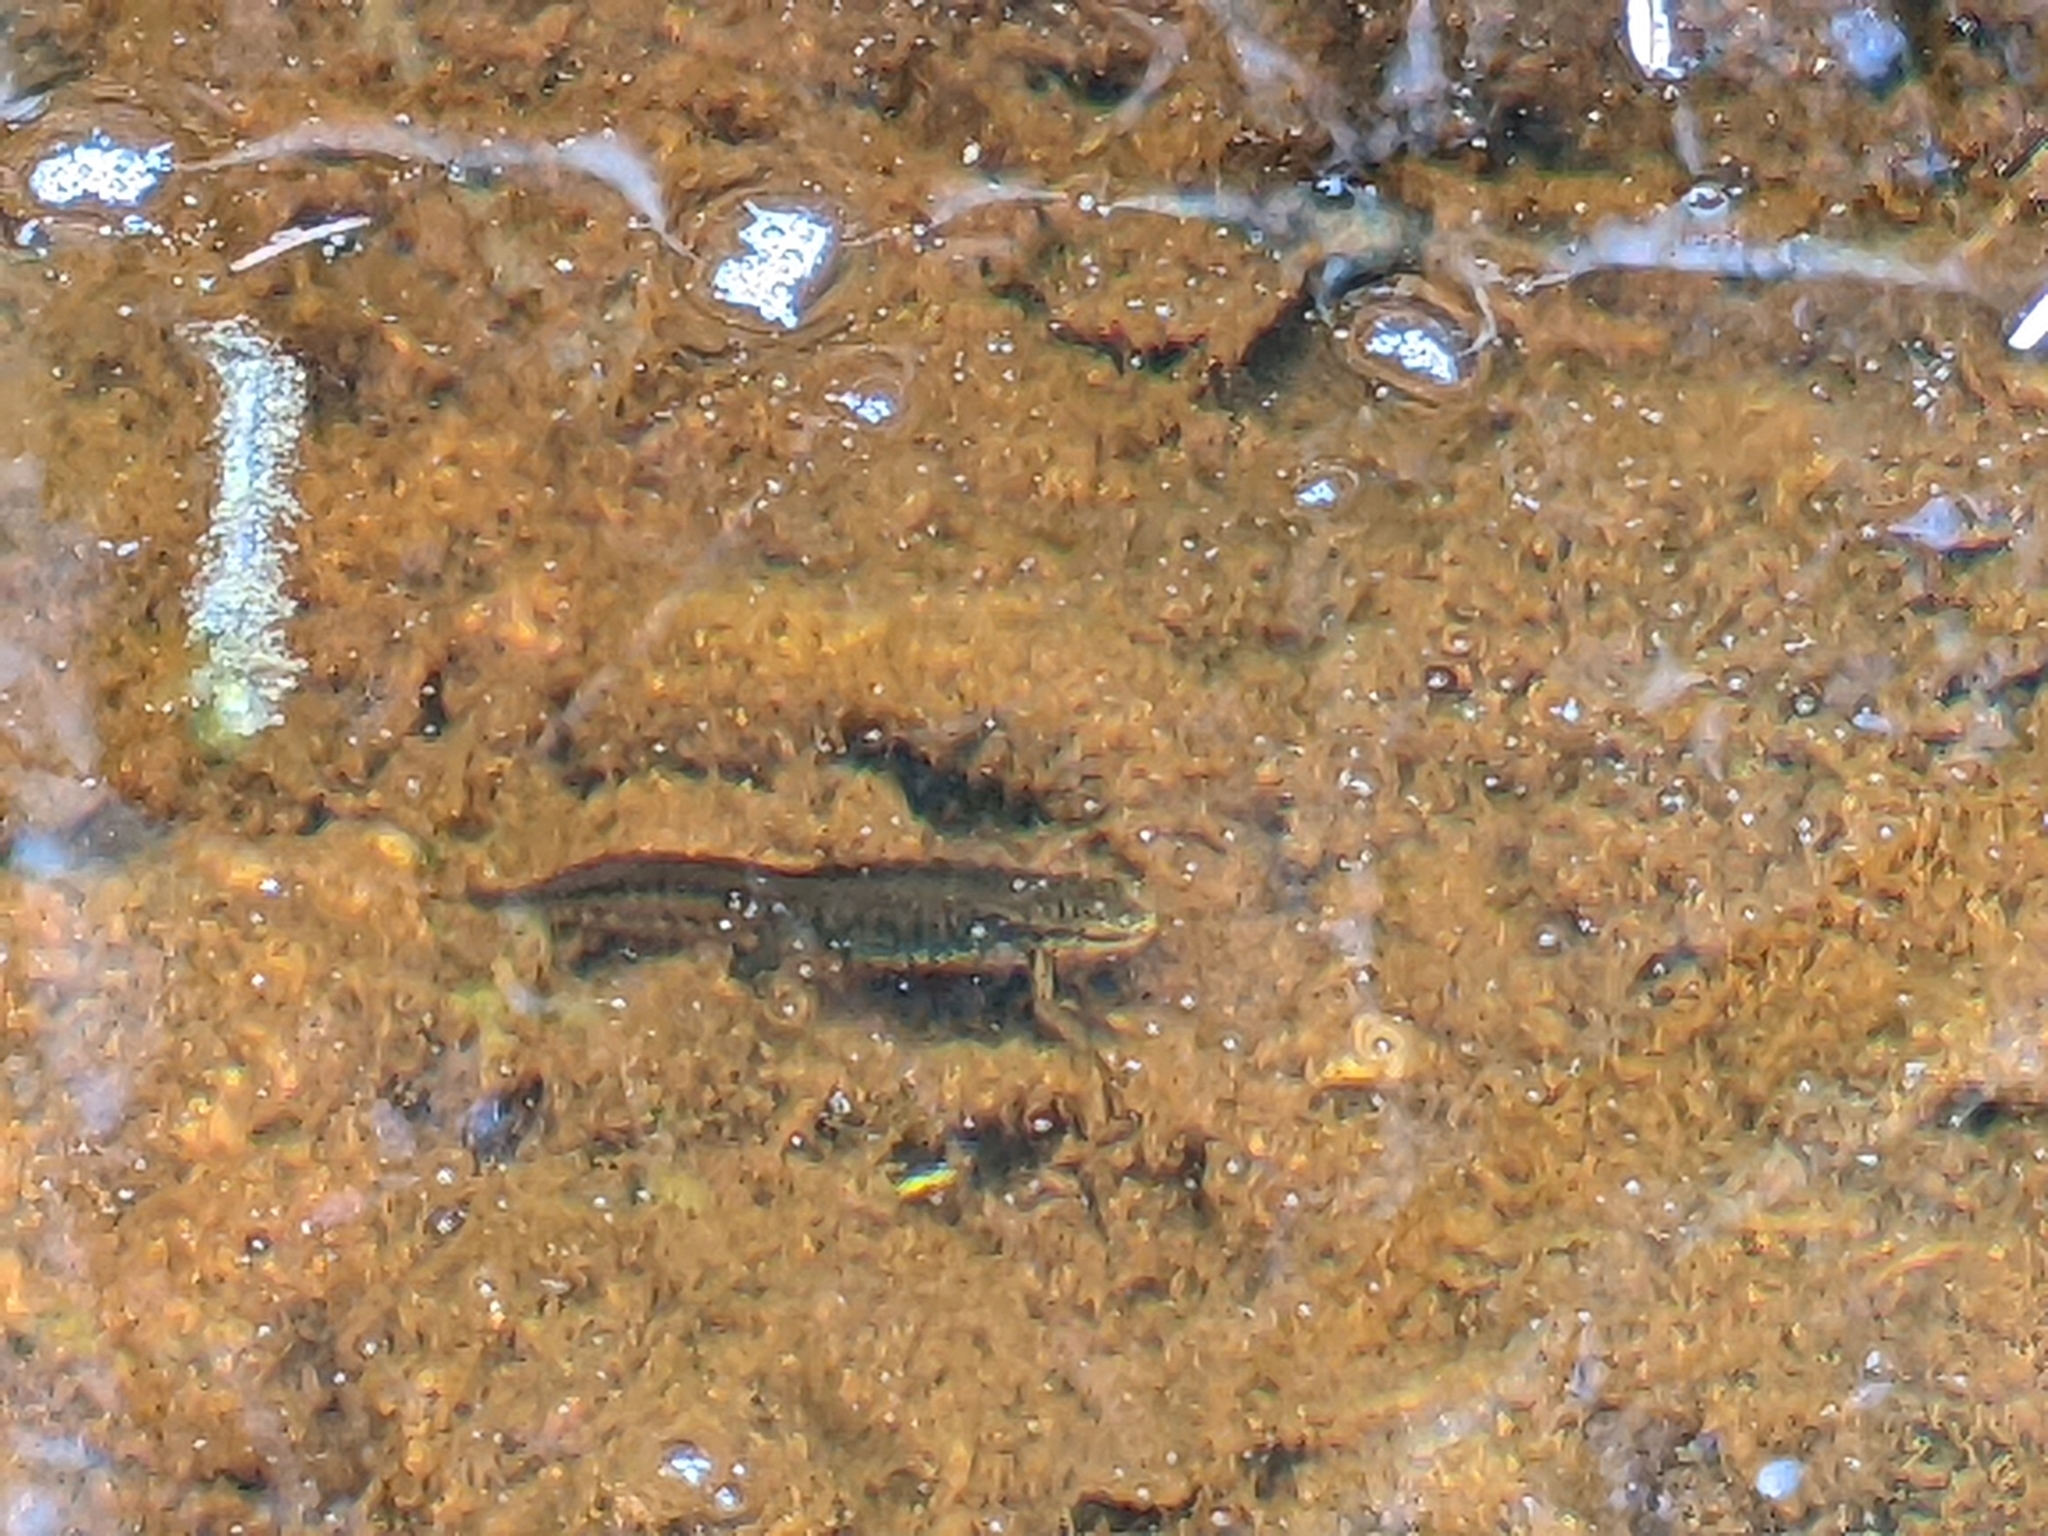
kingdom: Animalia
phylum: Chordata
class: Amphibia
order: Caudata
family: Salamandridae
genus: Lissotriton
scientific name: Lissotriton helveticus
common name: Palmate newt
